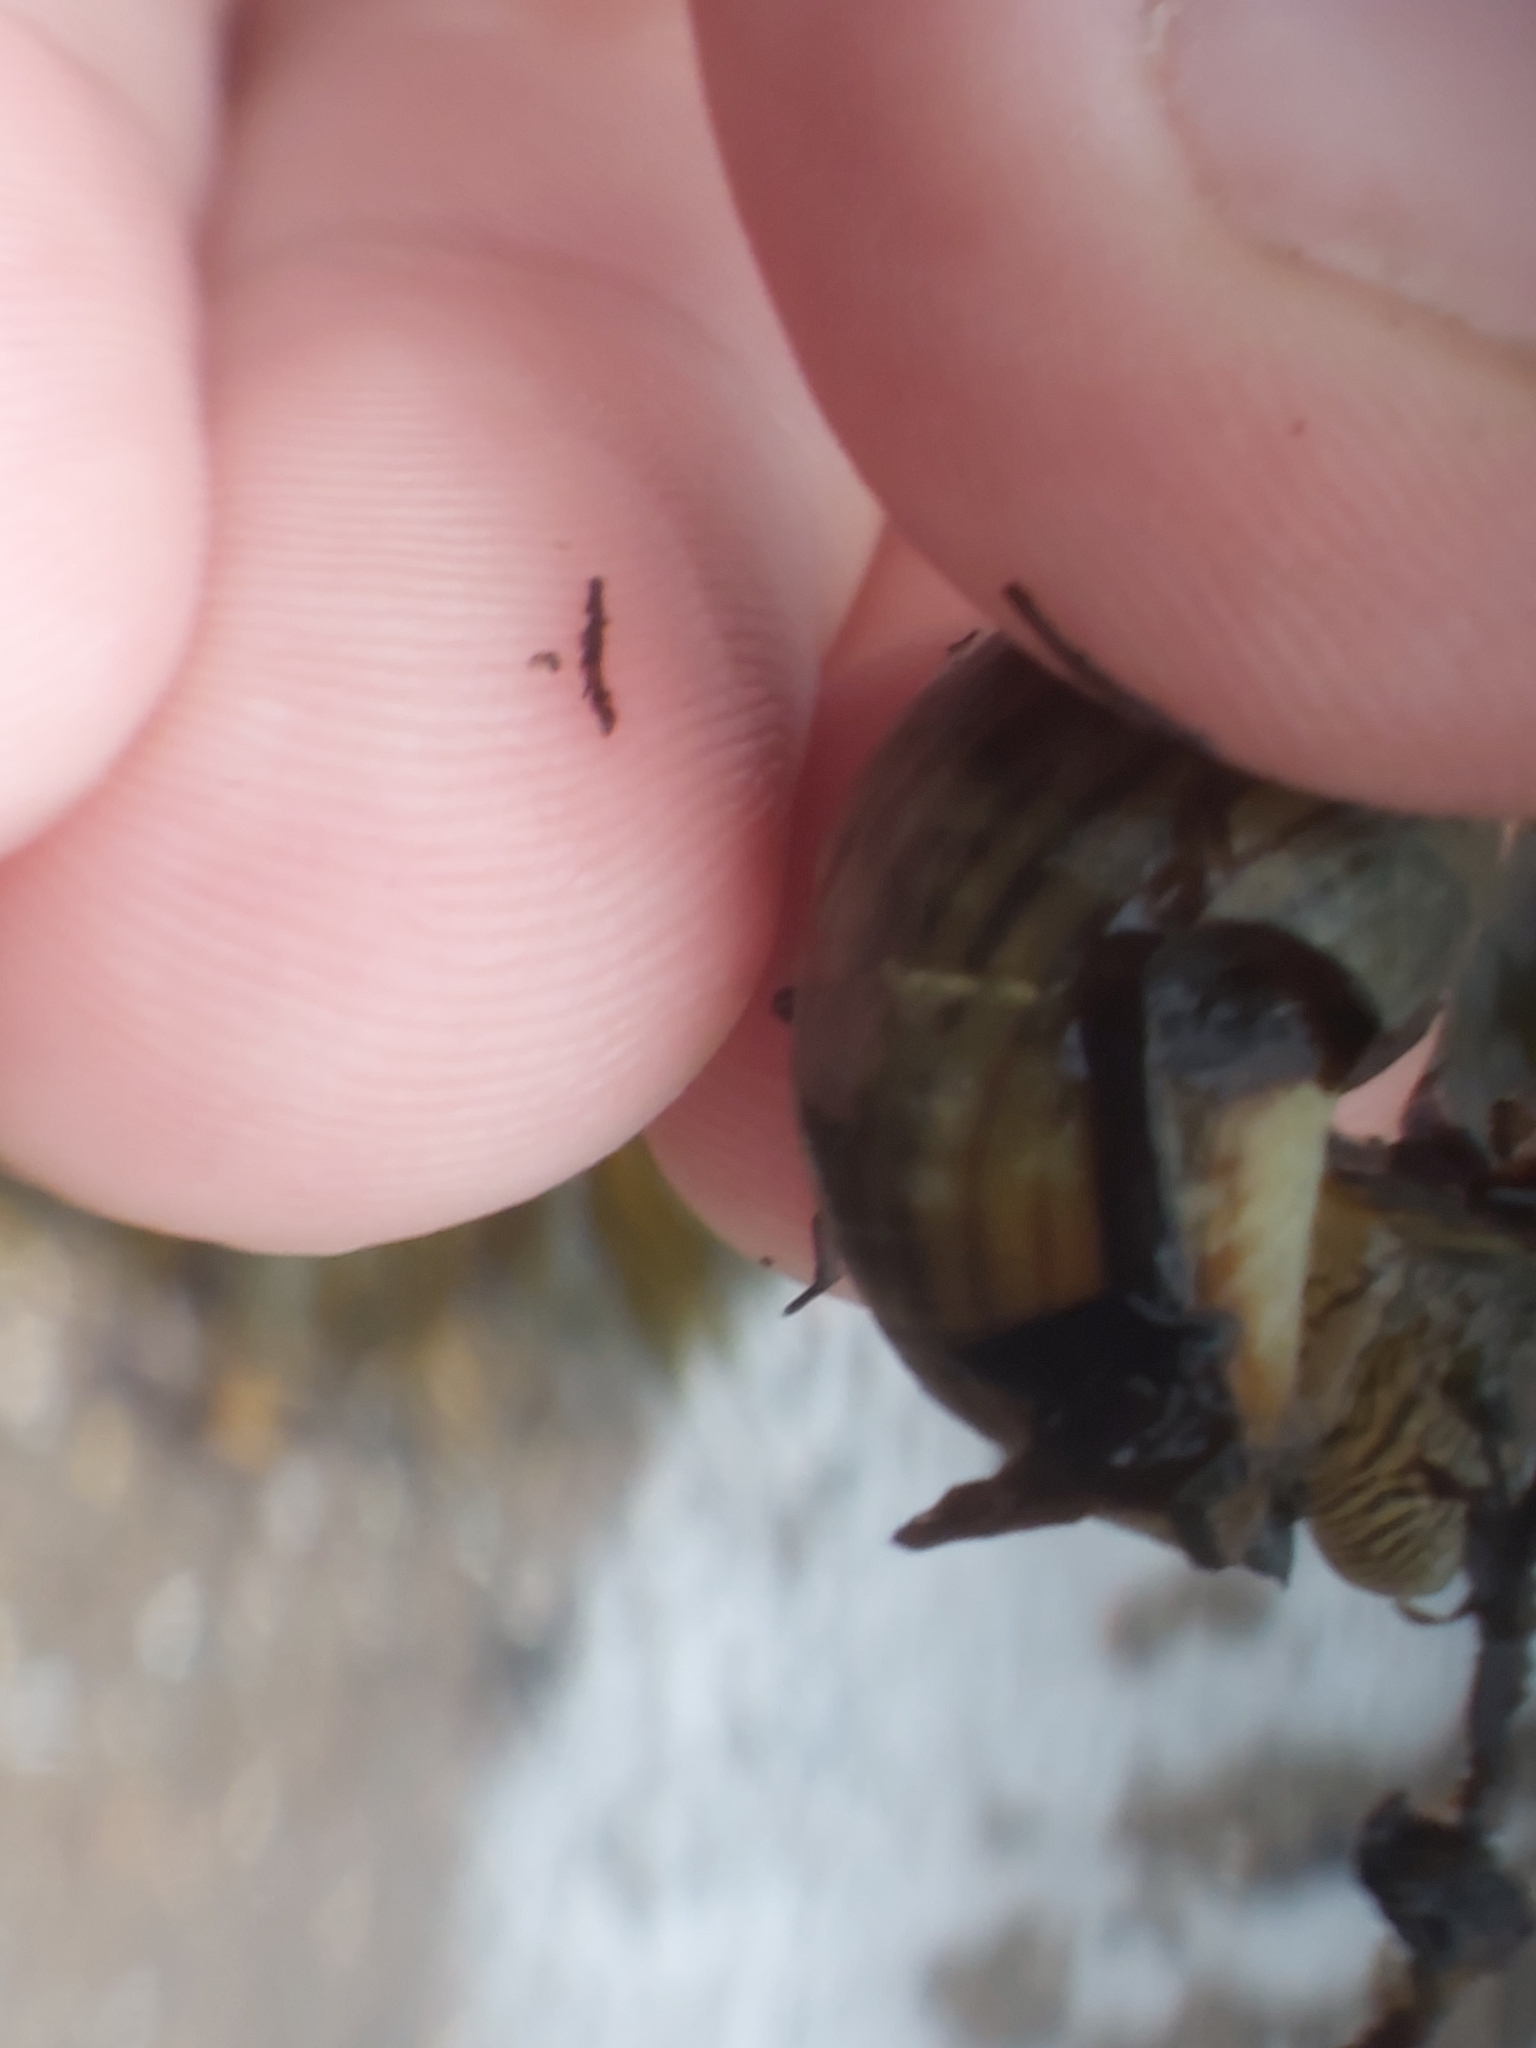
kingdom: Animalia
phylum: Mollusca
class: Gastropoda
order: Littorinimorpha
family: Littorinidae
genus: Littorina
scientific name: Littorina littorea
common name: Common periwinkle
